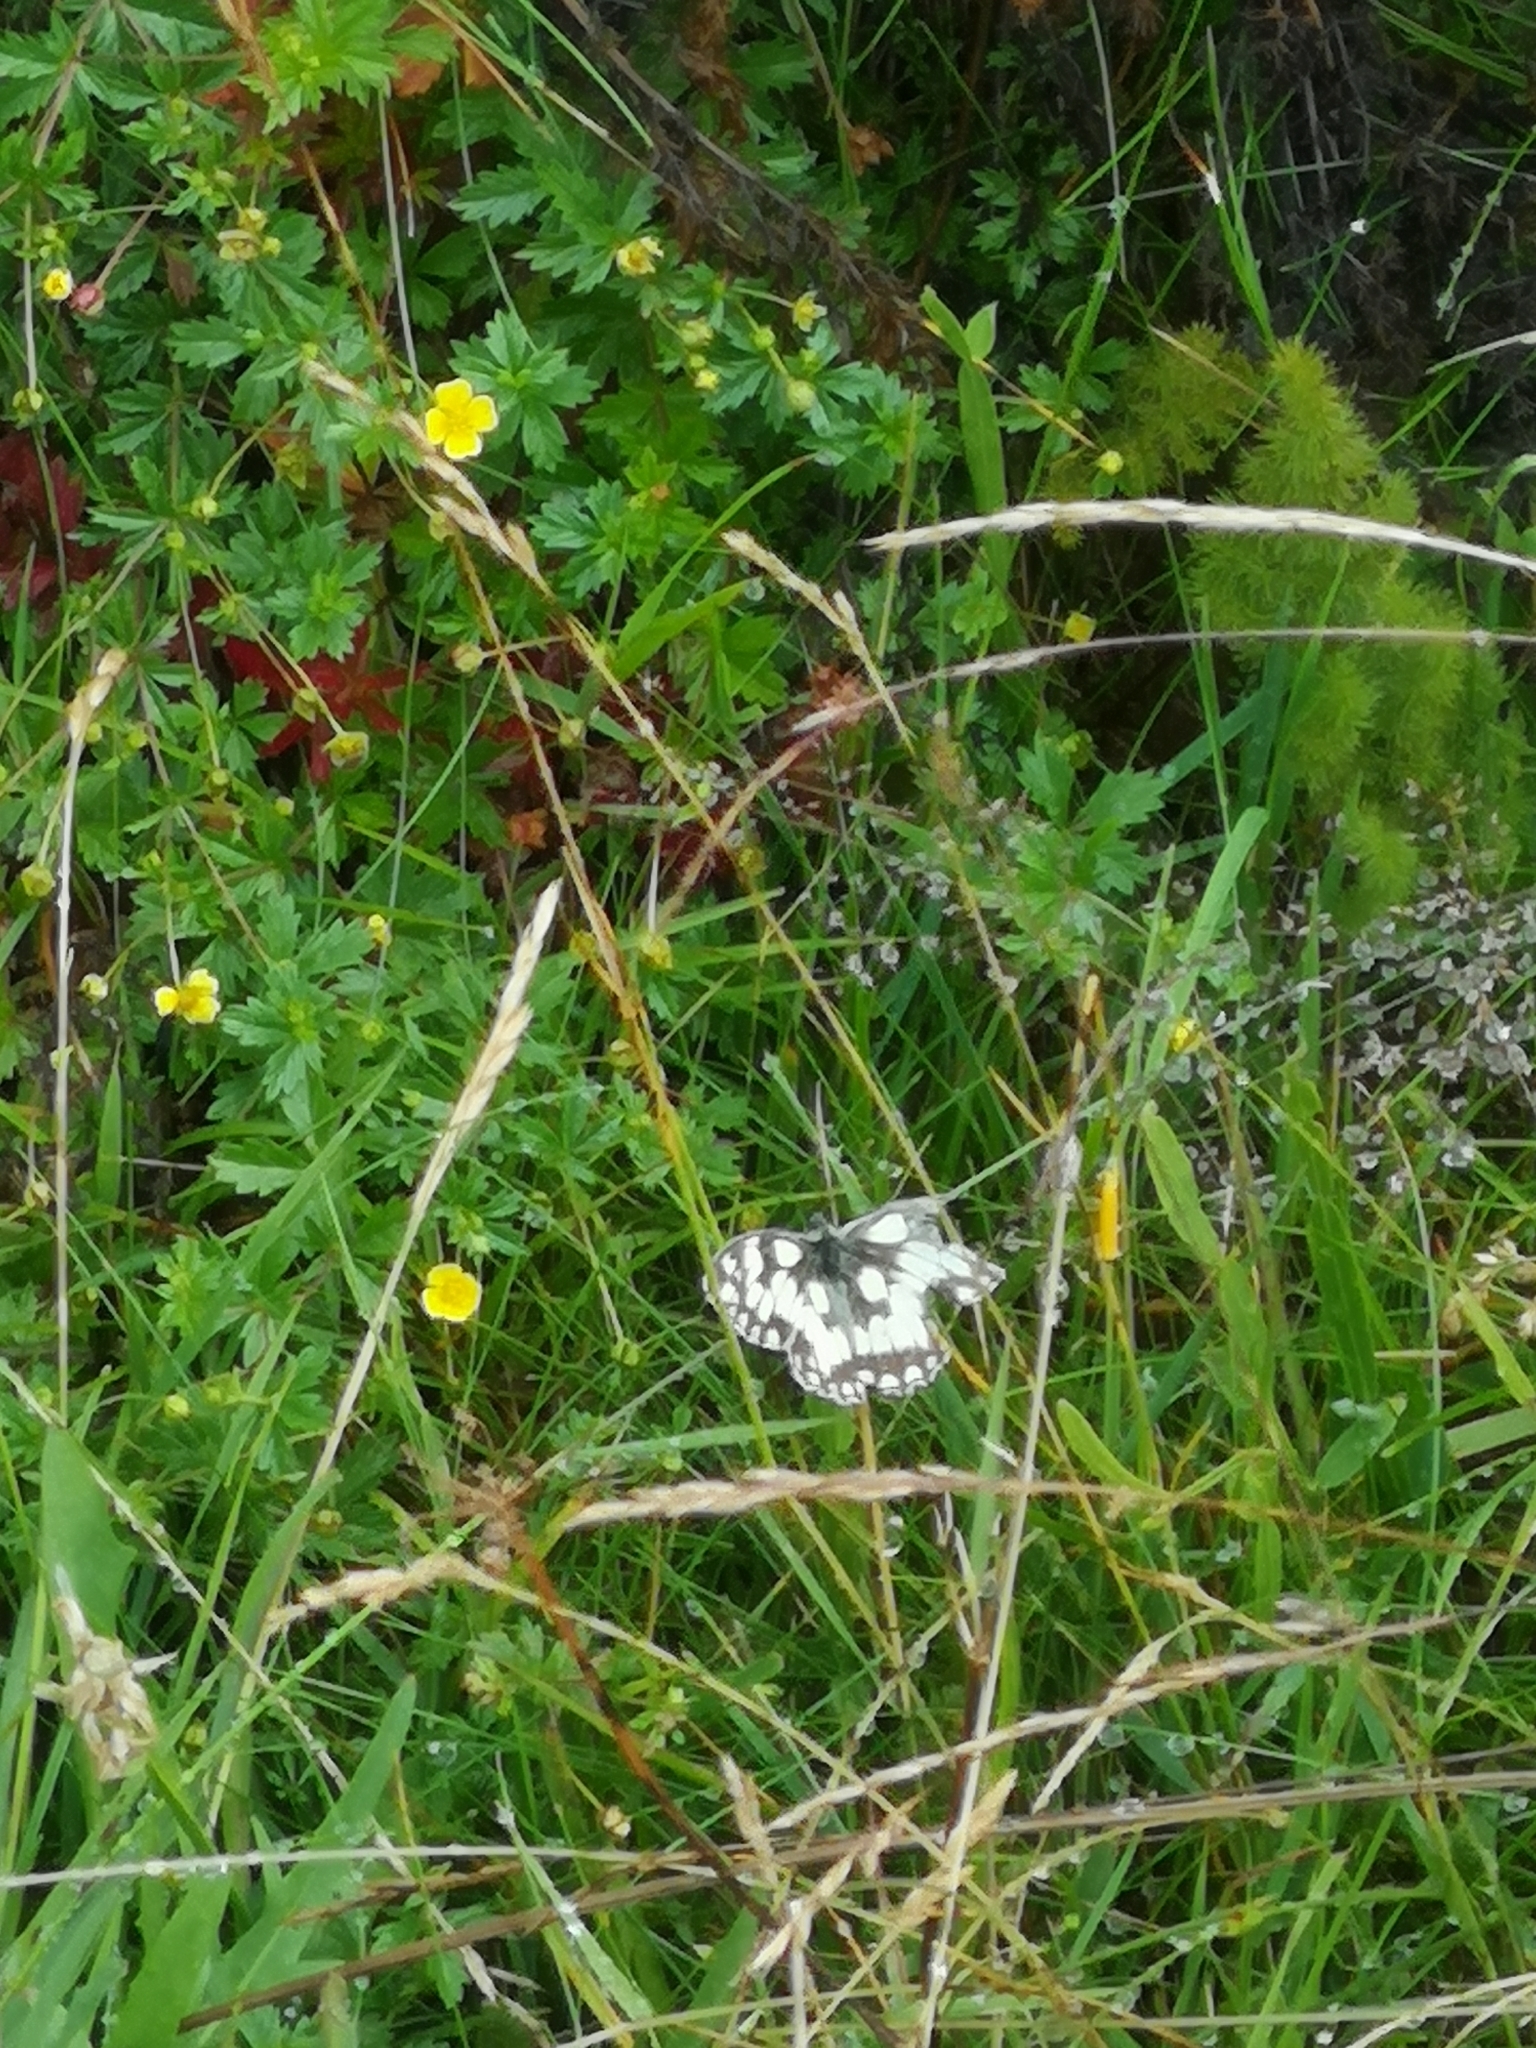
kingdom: Animalia
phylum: Arthropoda
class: Insecta
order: Lepidoptera
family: Nymphalidae
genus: Melanargia
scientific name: Melanargia galathea
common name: Marbled white
